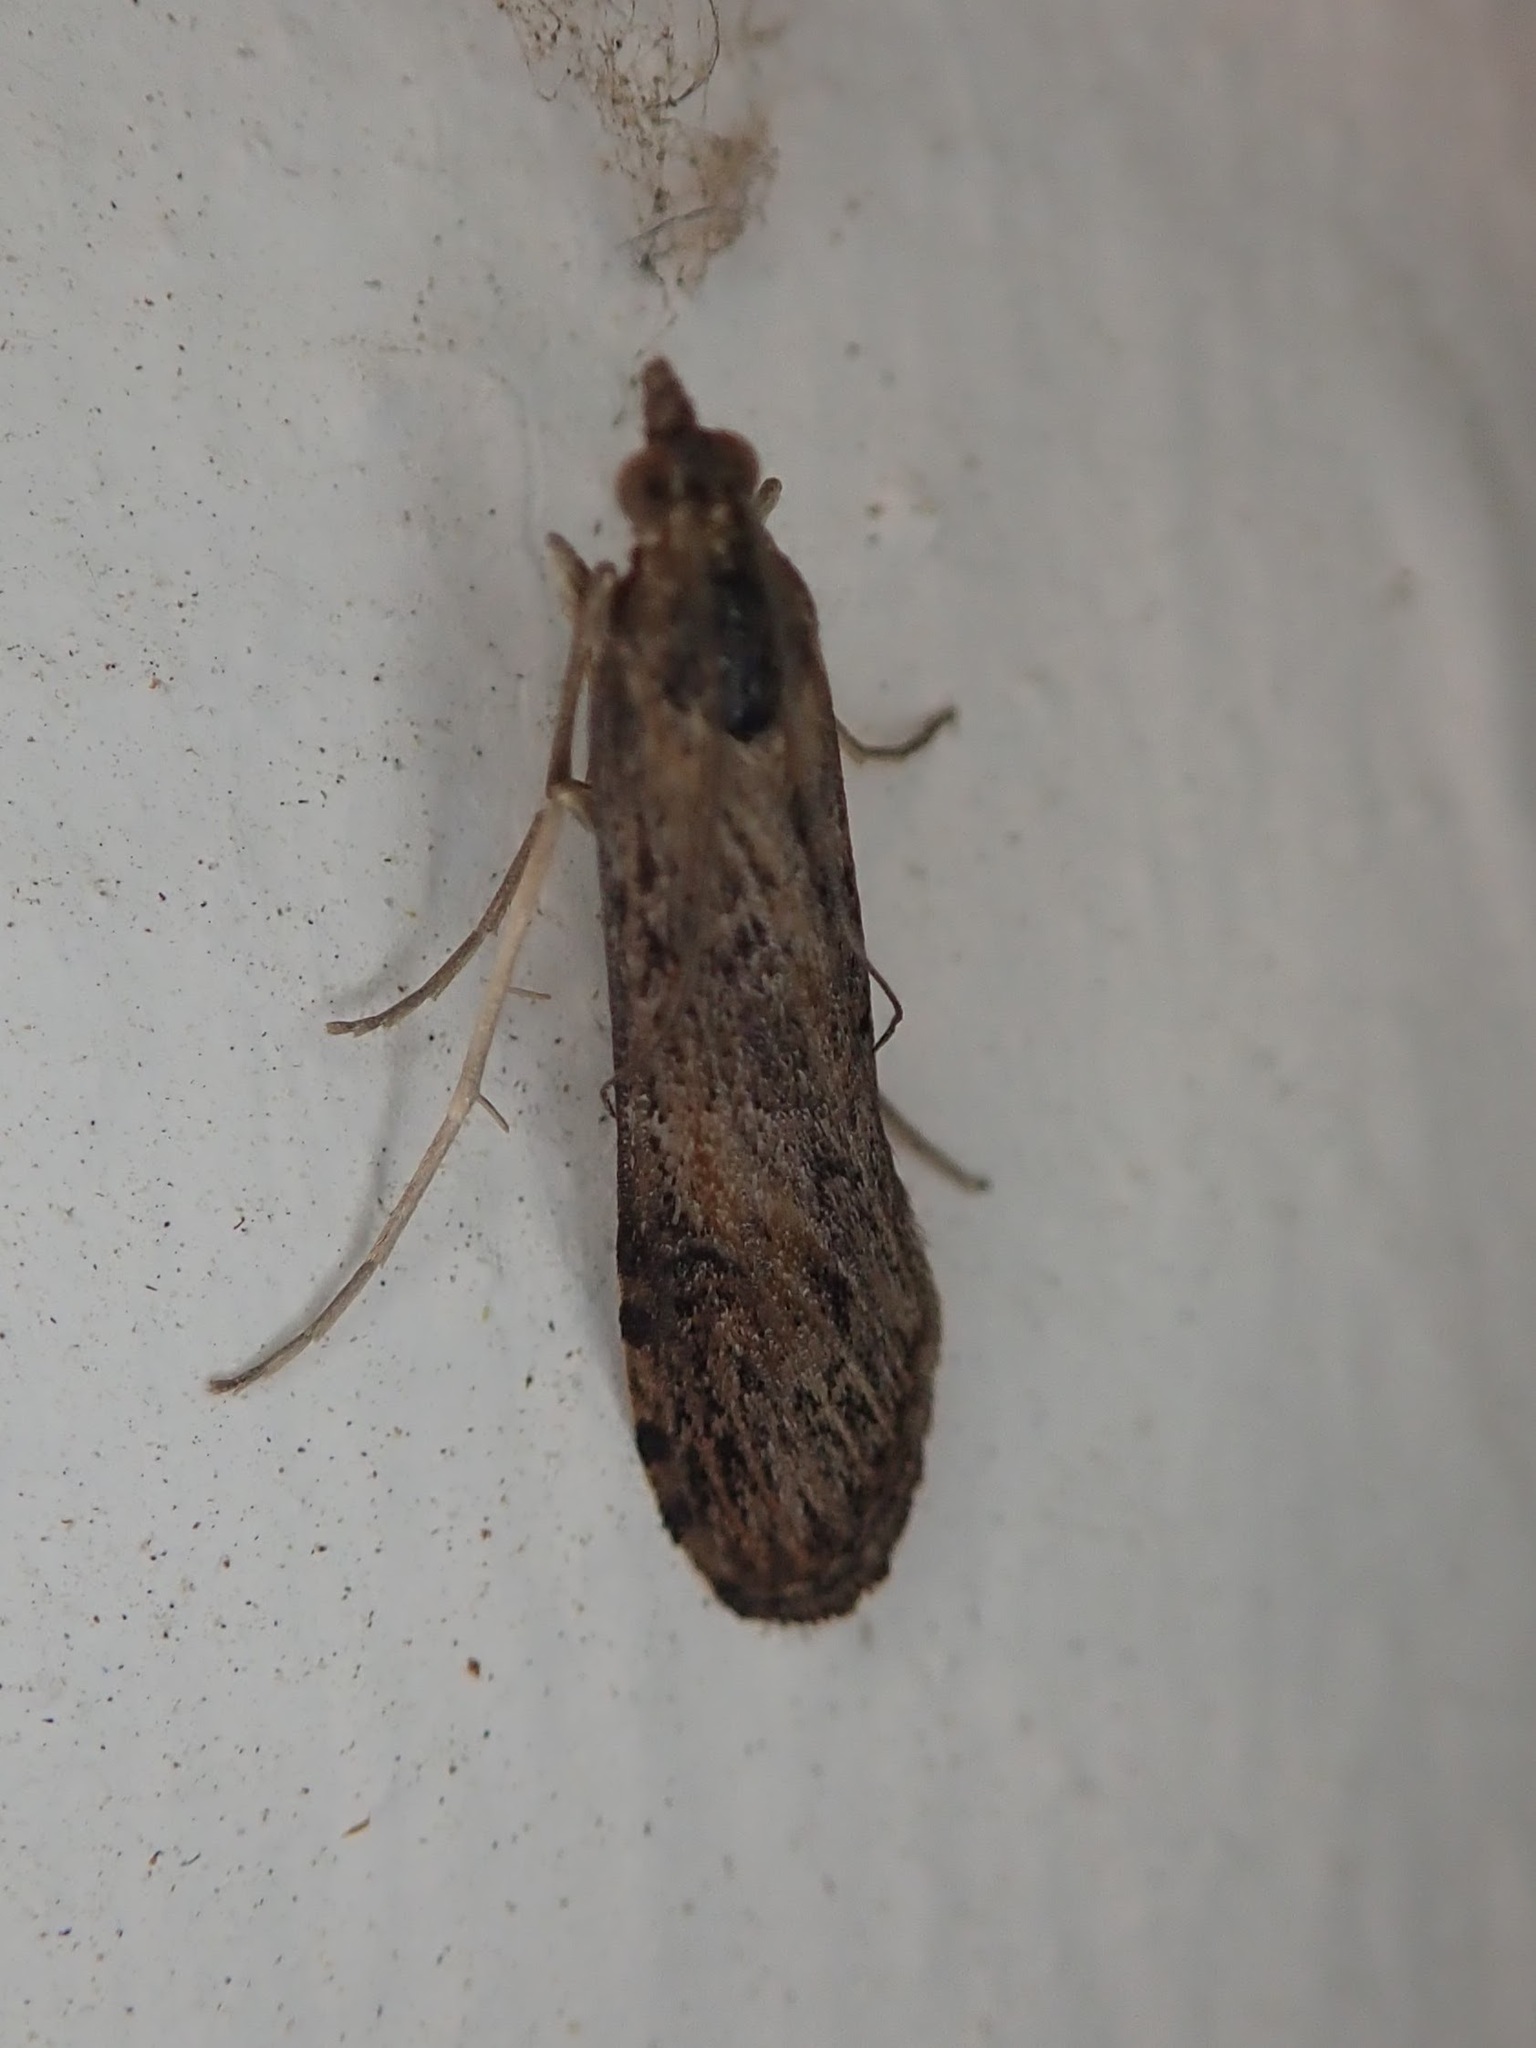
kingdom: Animalia
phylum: Arthropoda
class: Insecta
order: Lepidoptera
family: Crambidae
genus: Nomophila
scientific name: Nomophila nearctica
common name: American rush veneer
